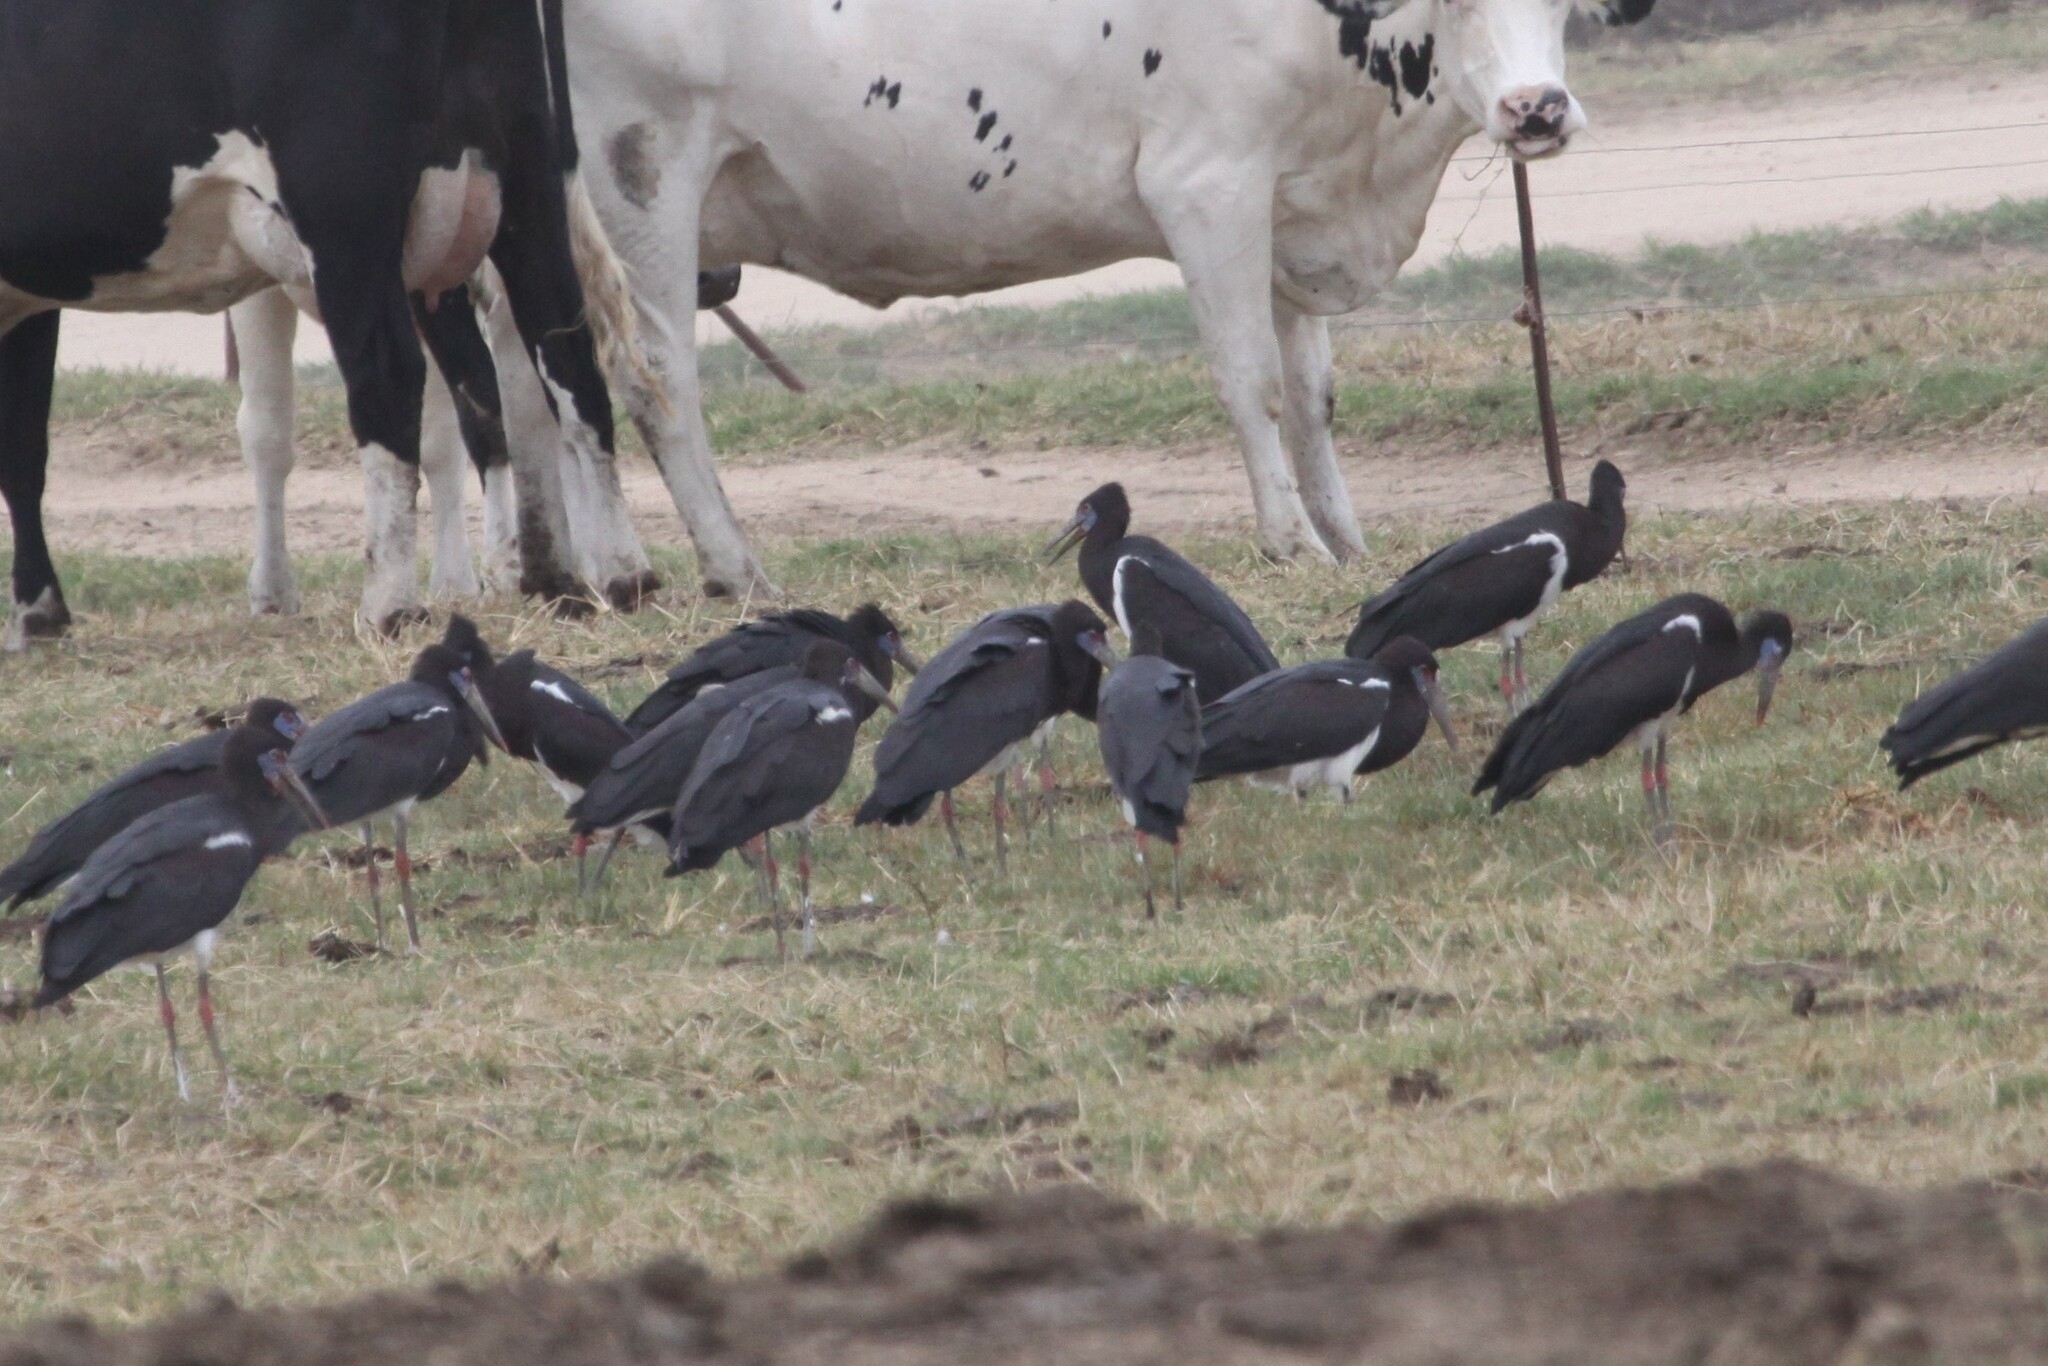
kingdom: Animalia
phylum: Chordata
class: Aves
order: Ciconiiformes
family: Ciconiidae
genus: Ciconia
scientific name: Ciconia abdimii
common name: Abdim's stork
